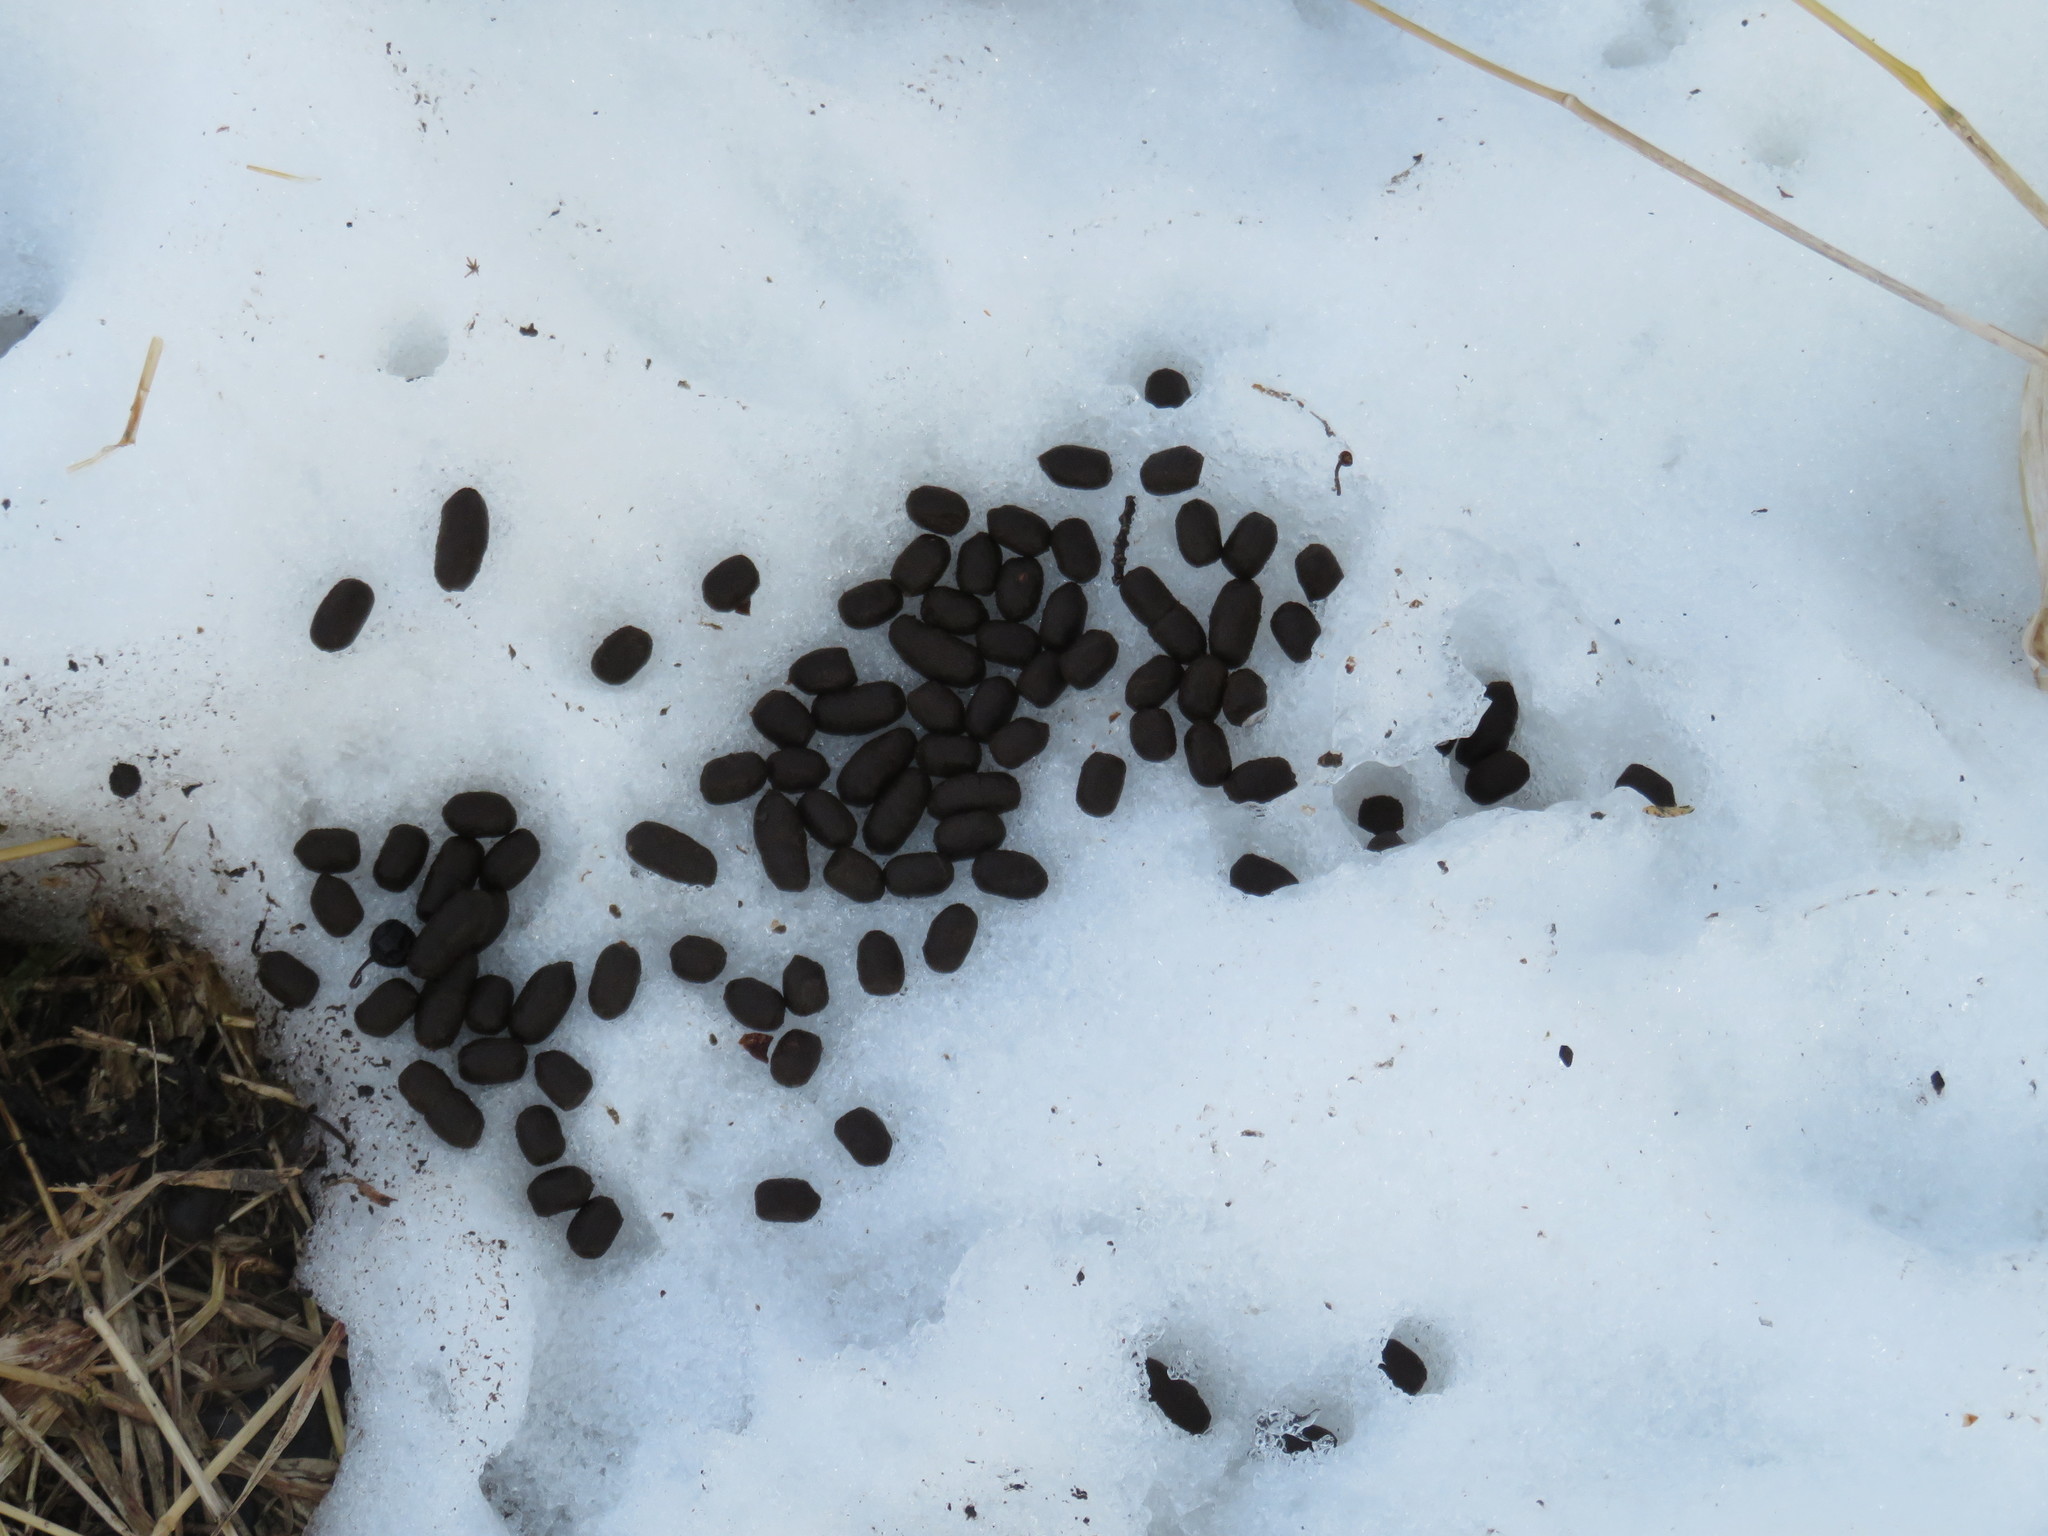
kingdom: Animalia
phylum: Chordata
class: Mammalia
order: Artiodactyla
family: Cervidae
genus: Odocoileus
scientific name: Odocoileus virginianus
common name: White-tailed deer
